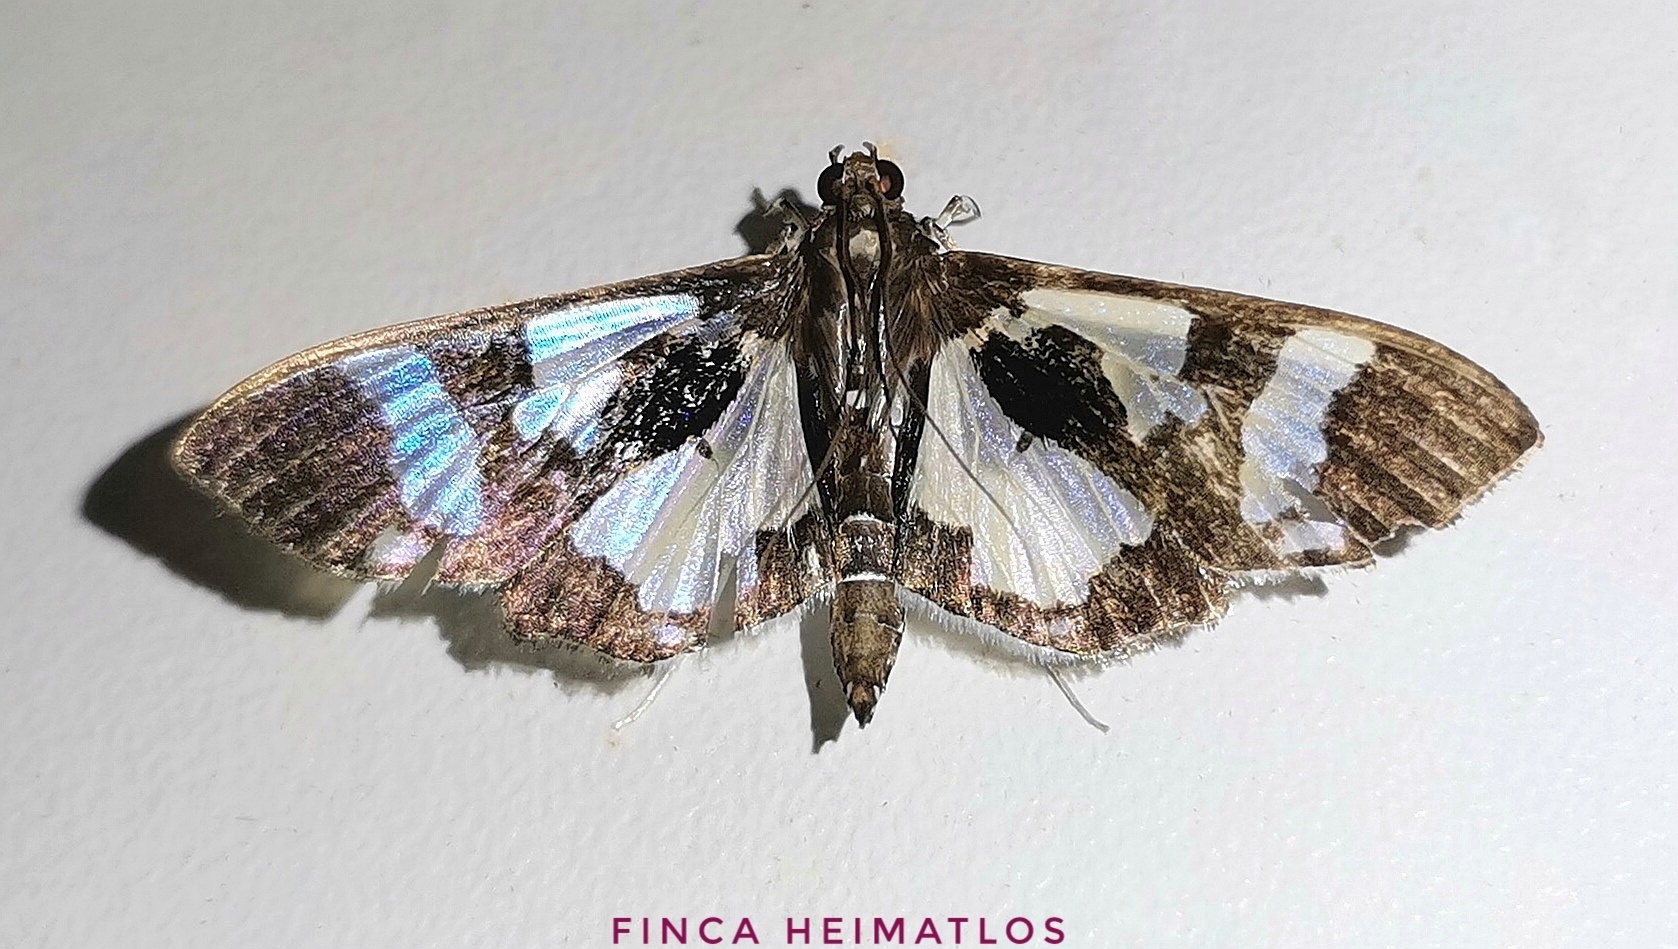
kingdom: Animalia
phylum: Arthropoda
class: Insecta
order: Lepidoptera
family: Crambidae
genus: Desmia
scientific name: Desmia bajulalis
